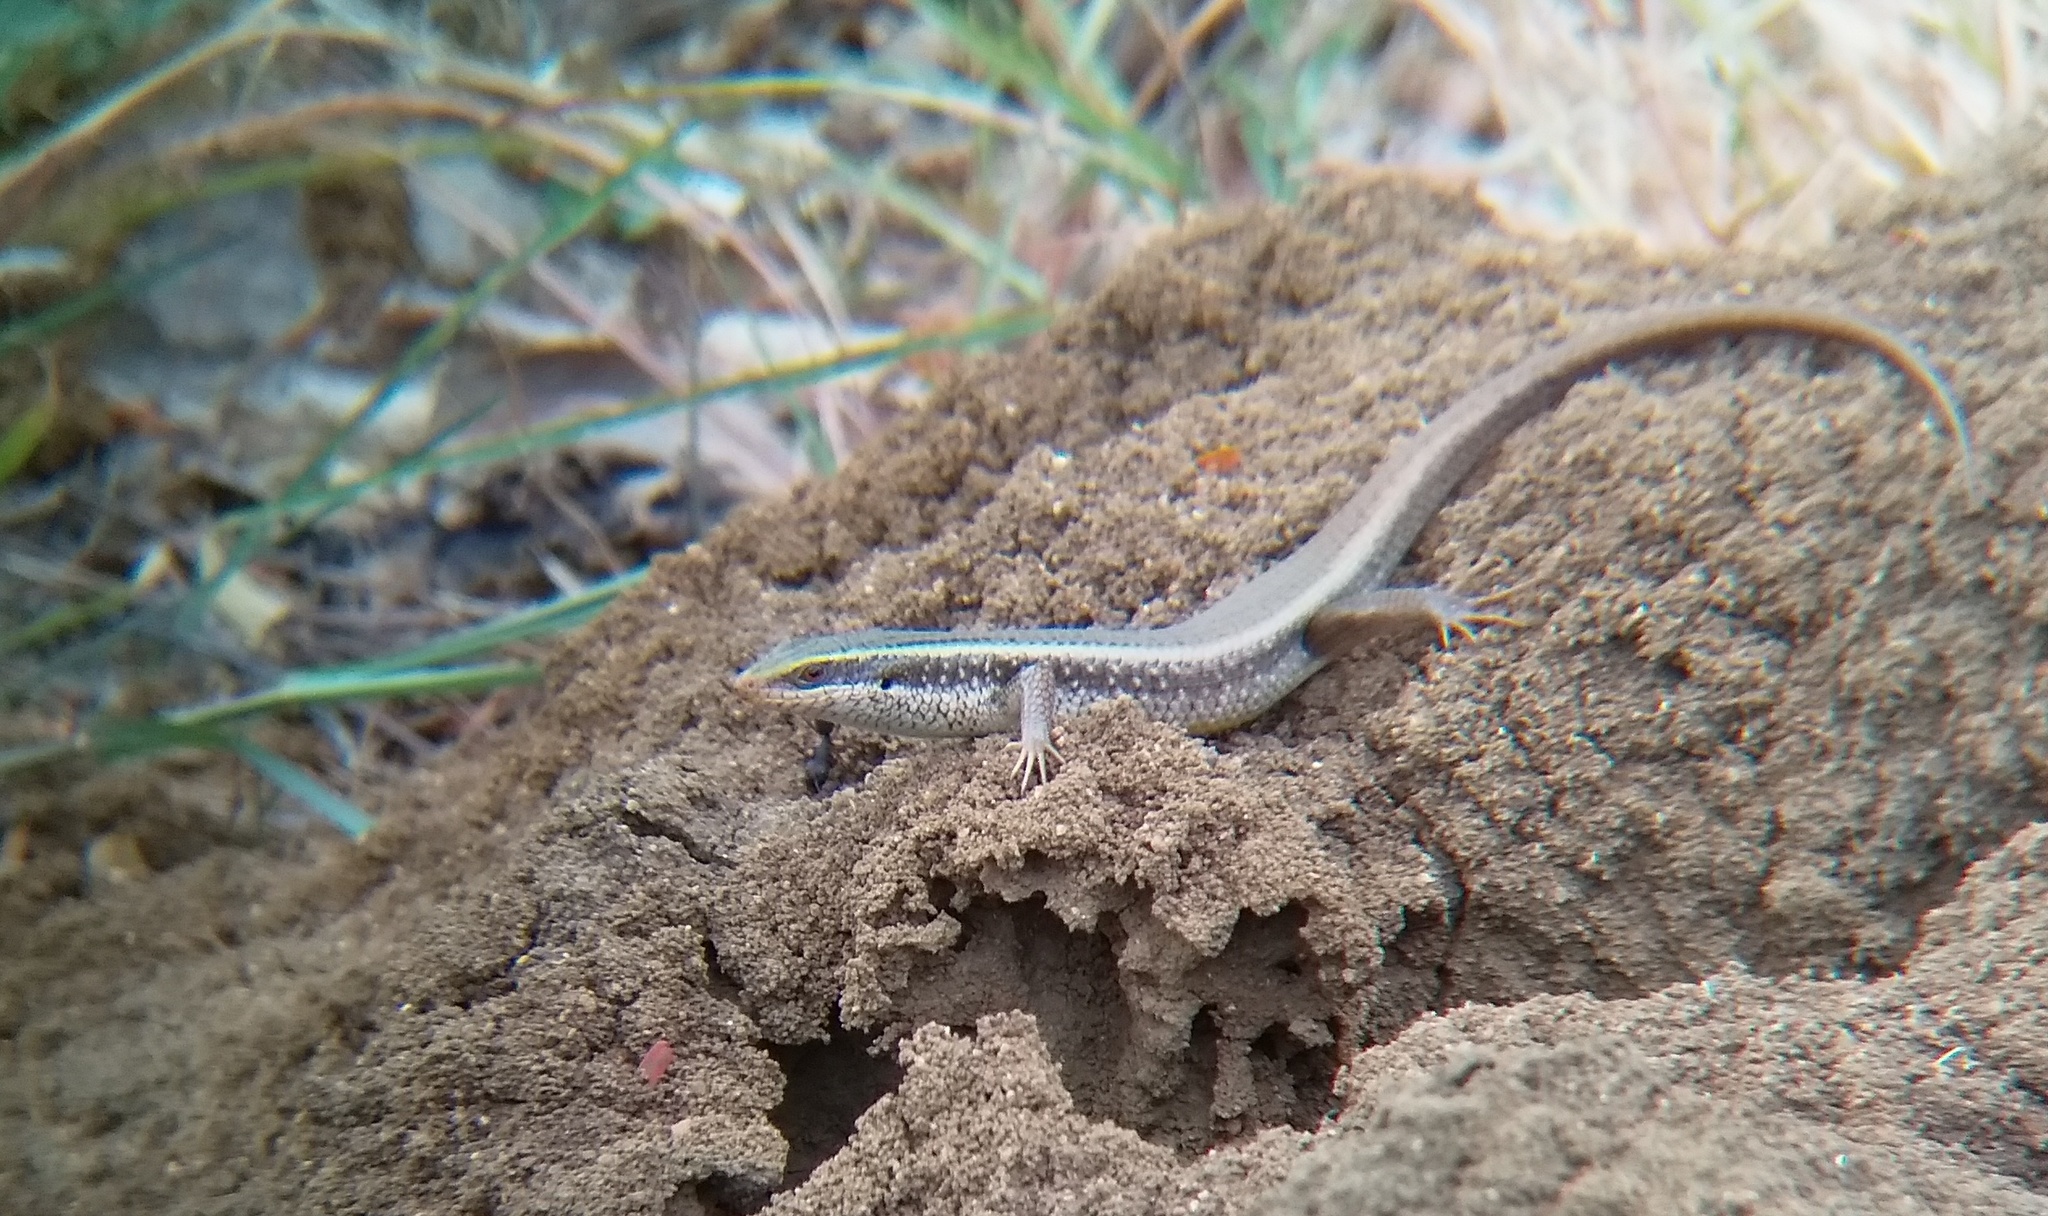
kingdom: Animalia
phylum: Chordata
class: Squamata
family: Scincidae
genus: Eutropis
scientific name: Eutropis carinata
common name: Keeled indian mabuya
